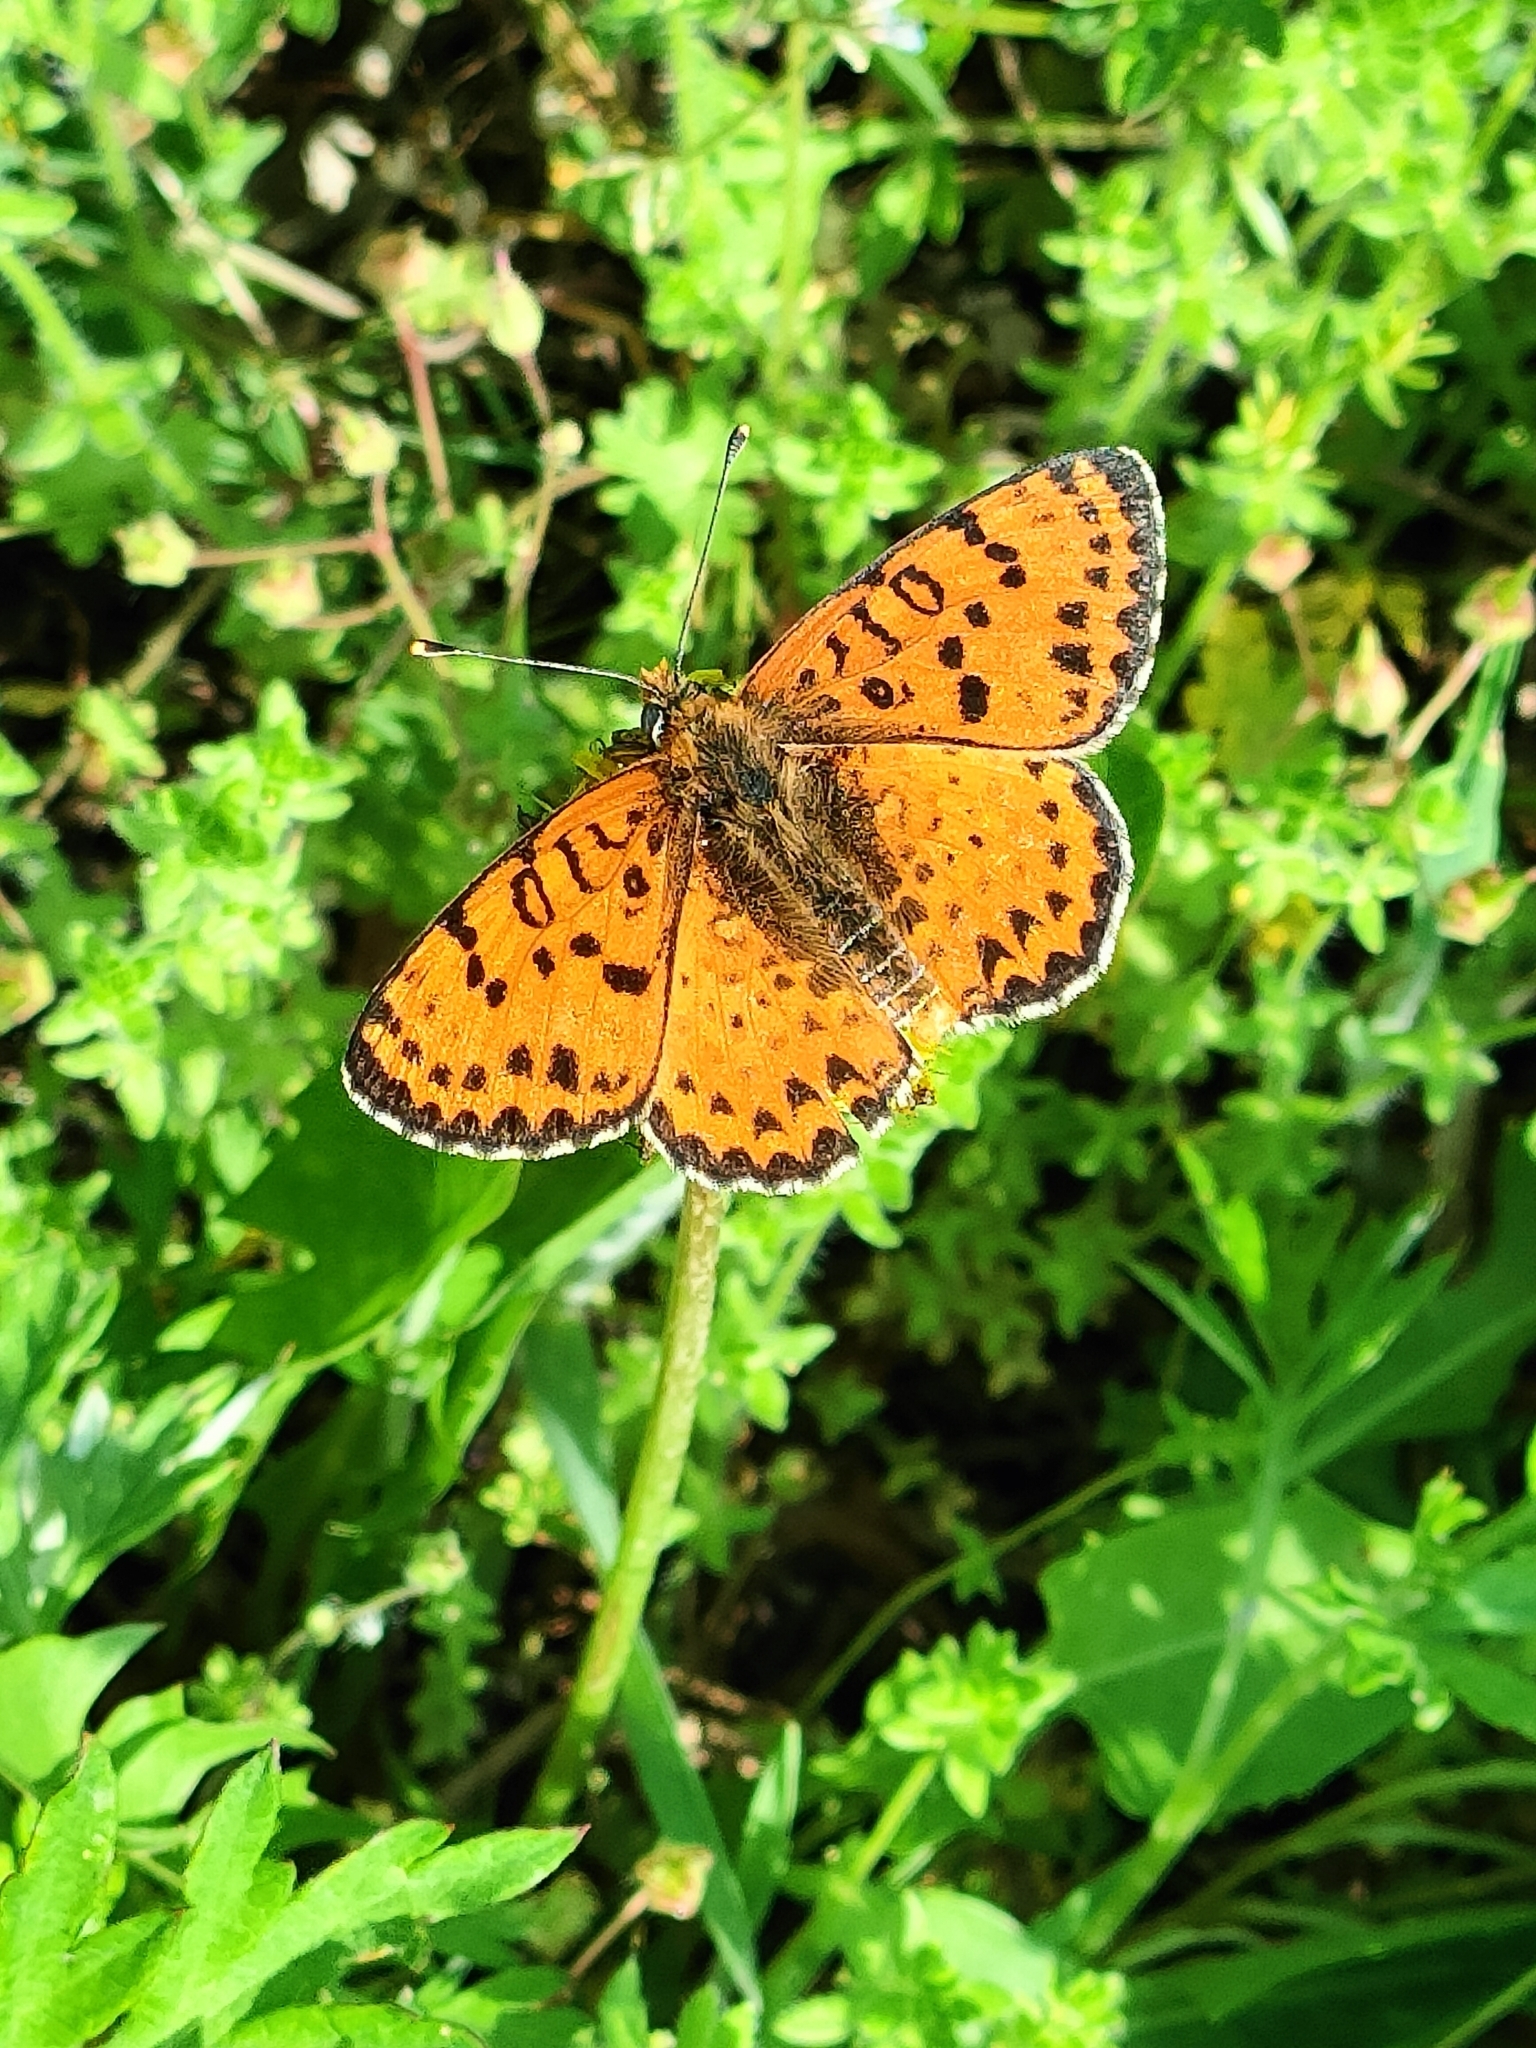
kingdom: Animalia
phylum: Arthropoda
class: Insecta
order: Lepidoptera
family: Nymphalidae
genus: Melitaea
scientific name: Melitaea didyma
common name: Spotted fritillary
